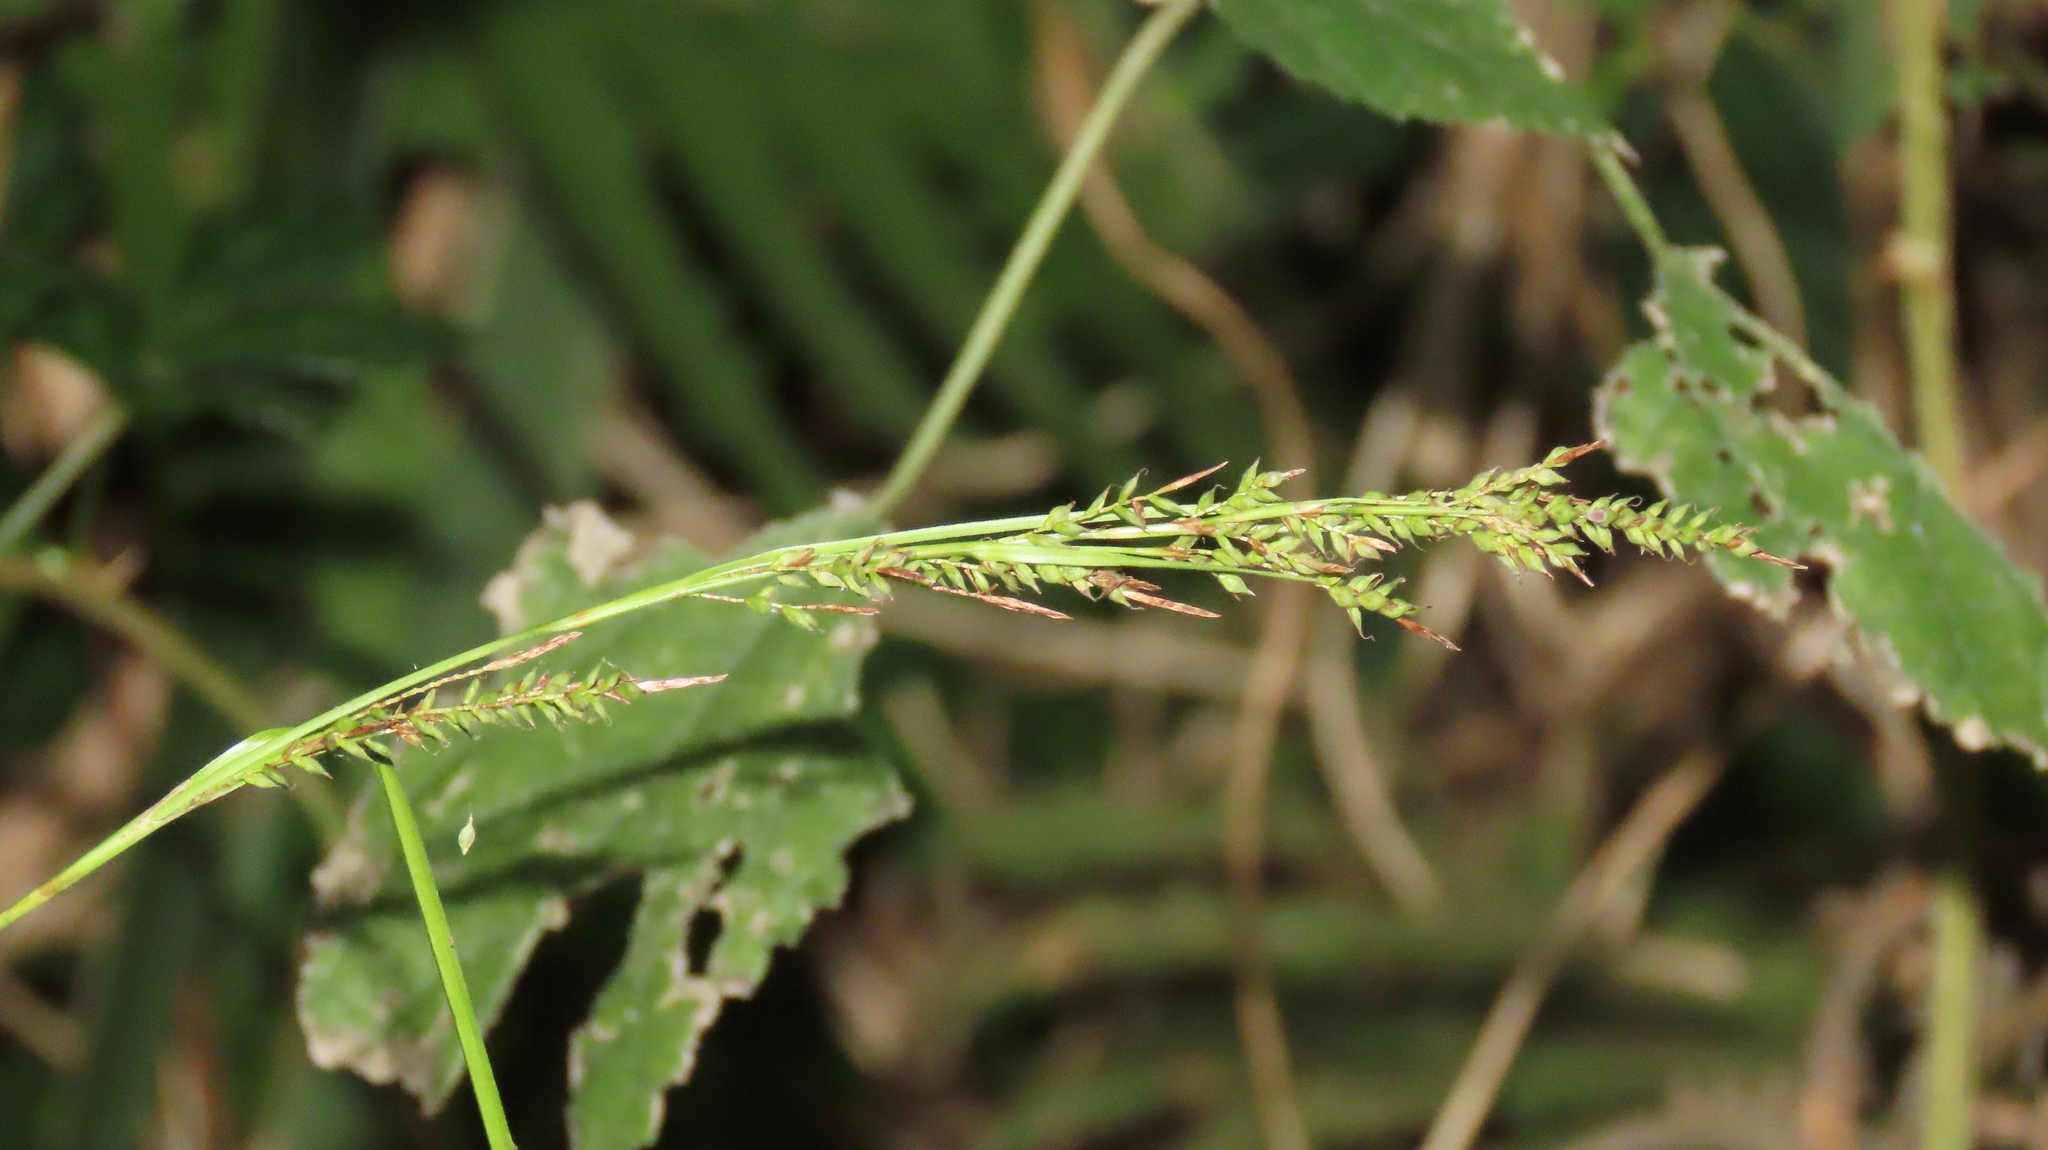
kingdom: Plantae
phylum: Tracheophyta
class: Liliopsida
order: Poales
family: Cyperaceae
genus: Carex
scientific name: Carex brunnea
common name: Greater brown sedge
